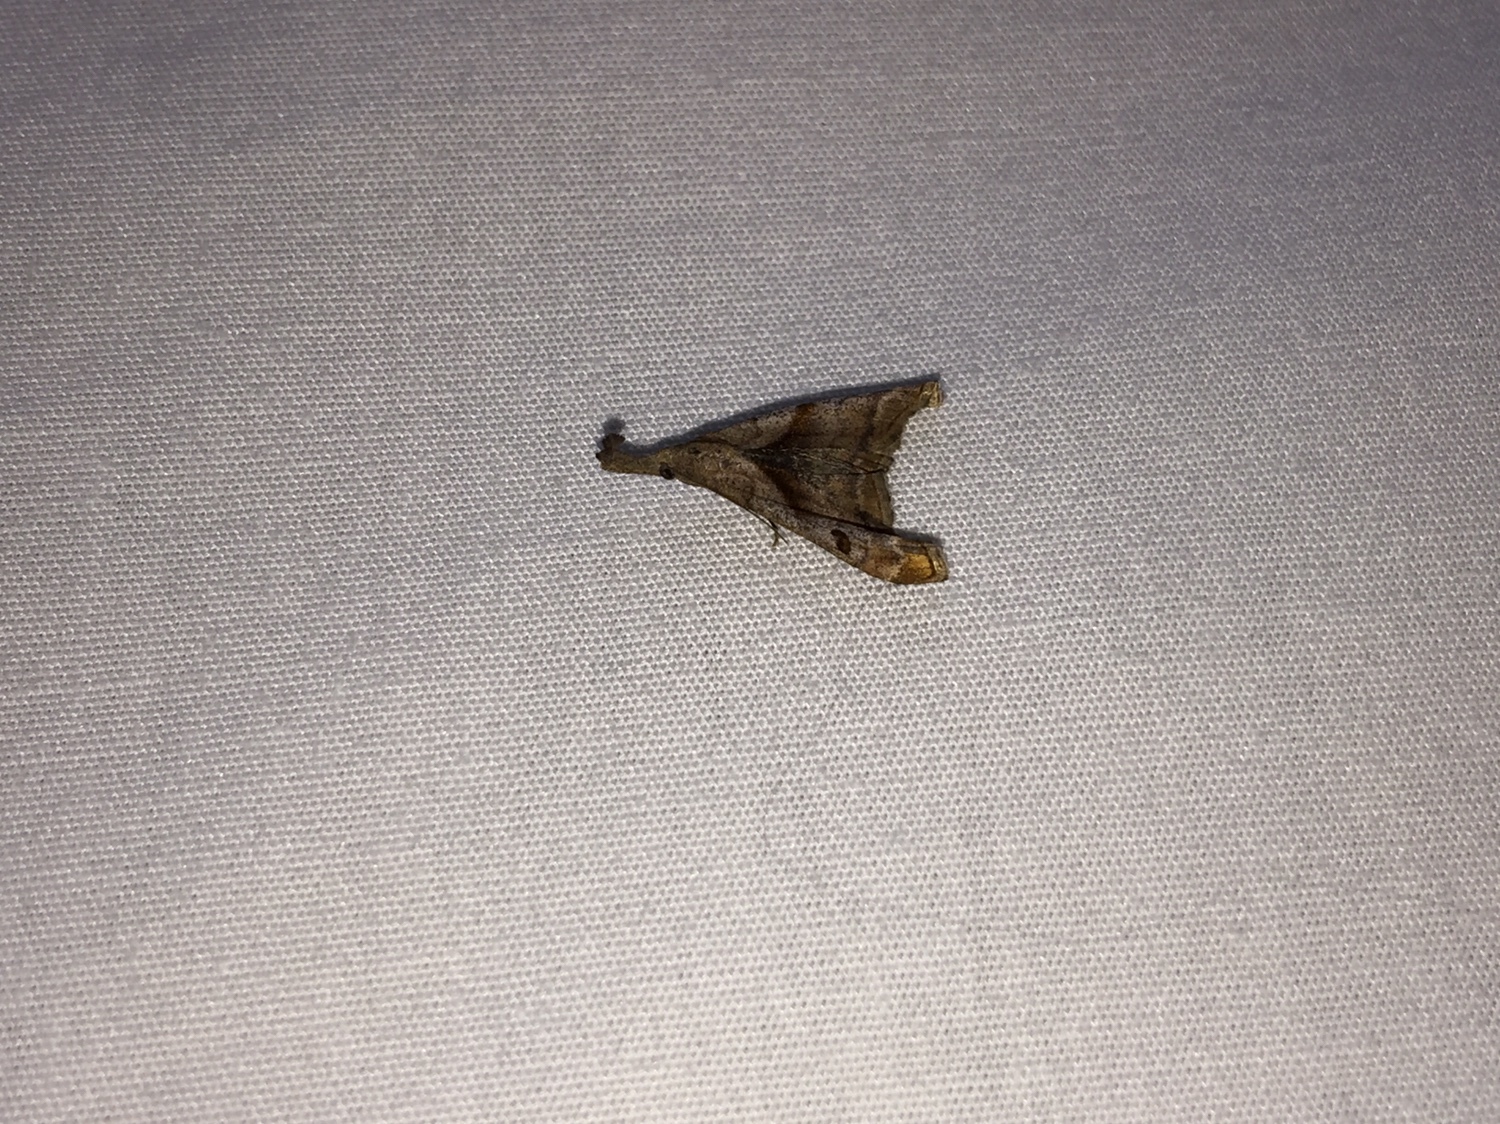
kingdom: Animalia
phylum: Arthropoda
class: Insecta
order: Lepidoptera
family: Erebidae
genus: Palthis
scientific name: Palthis angulalis
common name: Dark-spotted palthis moth
